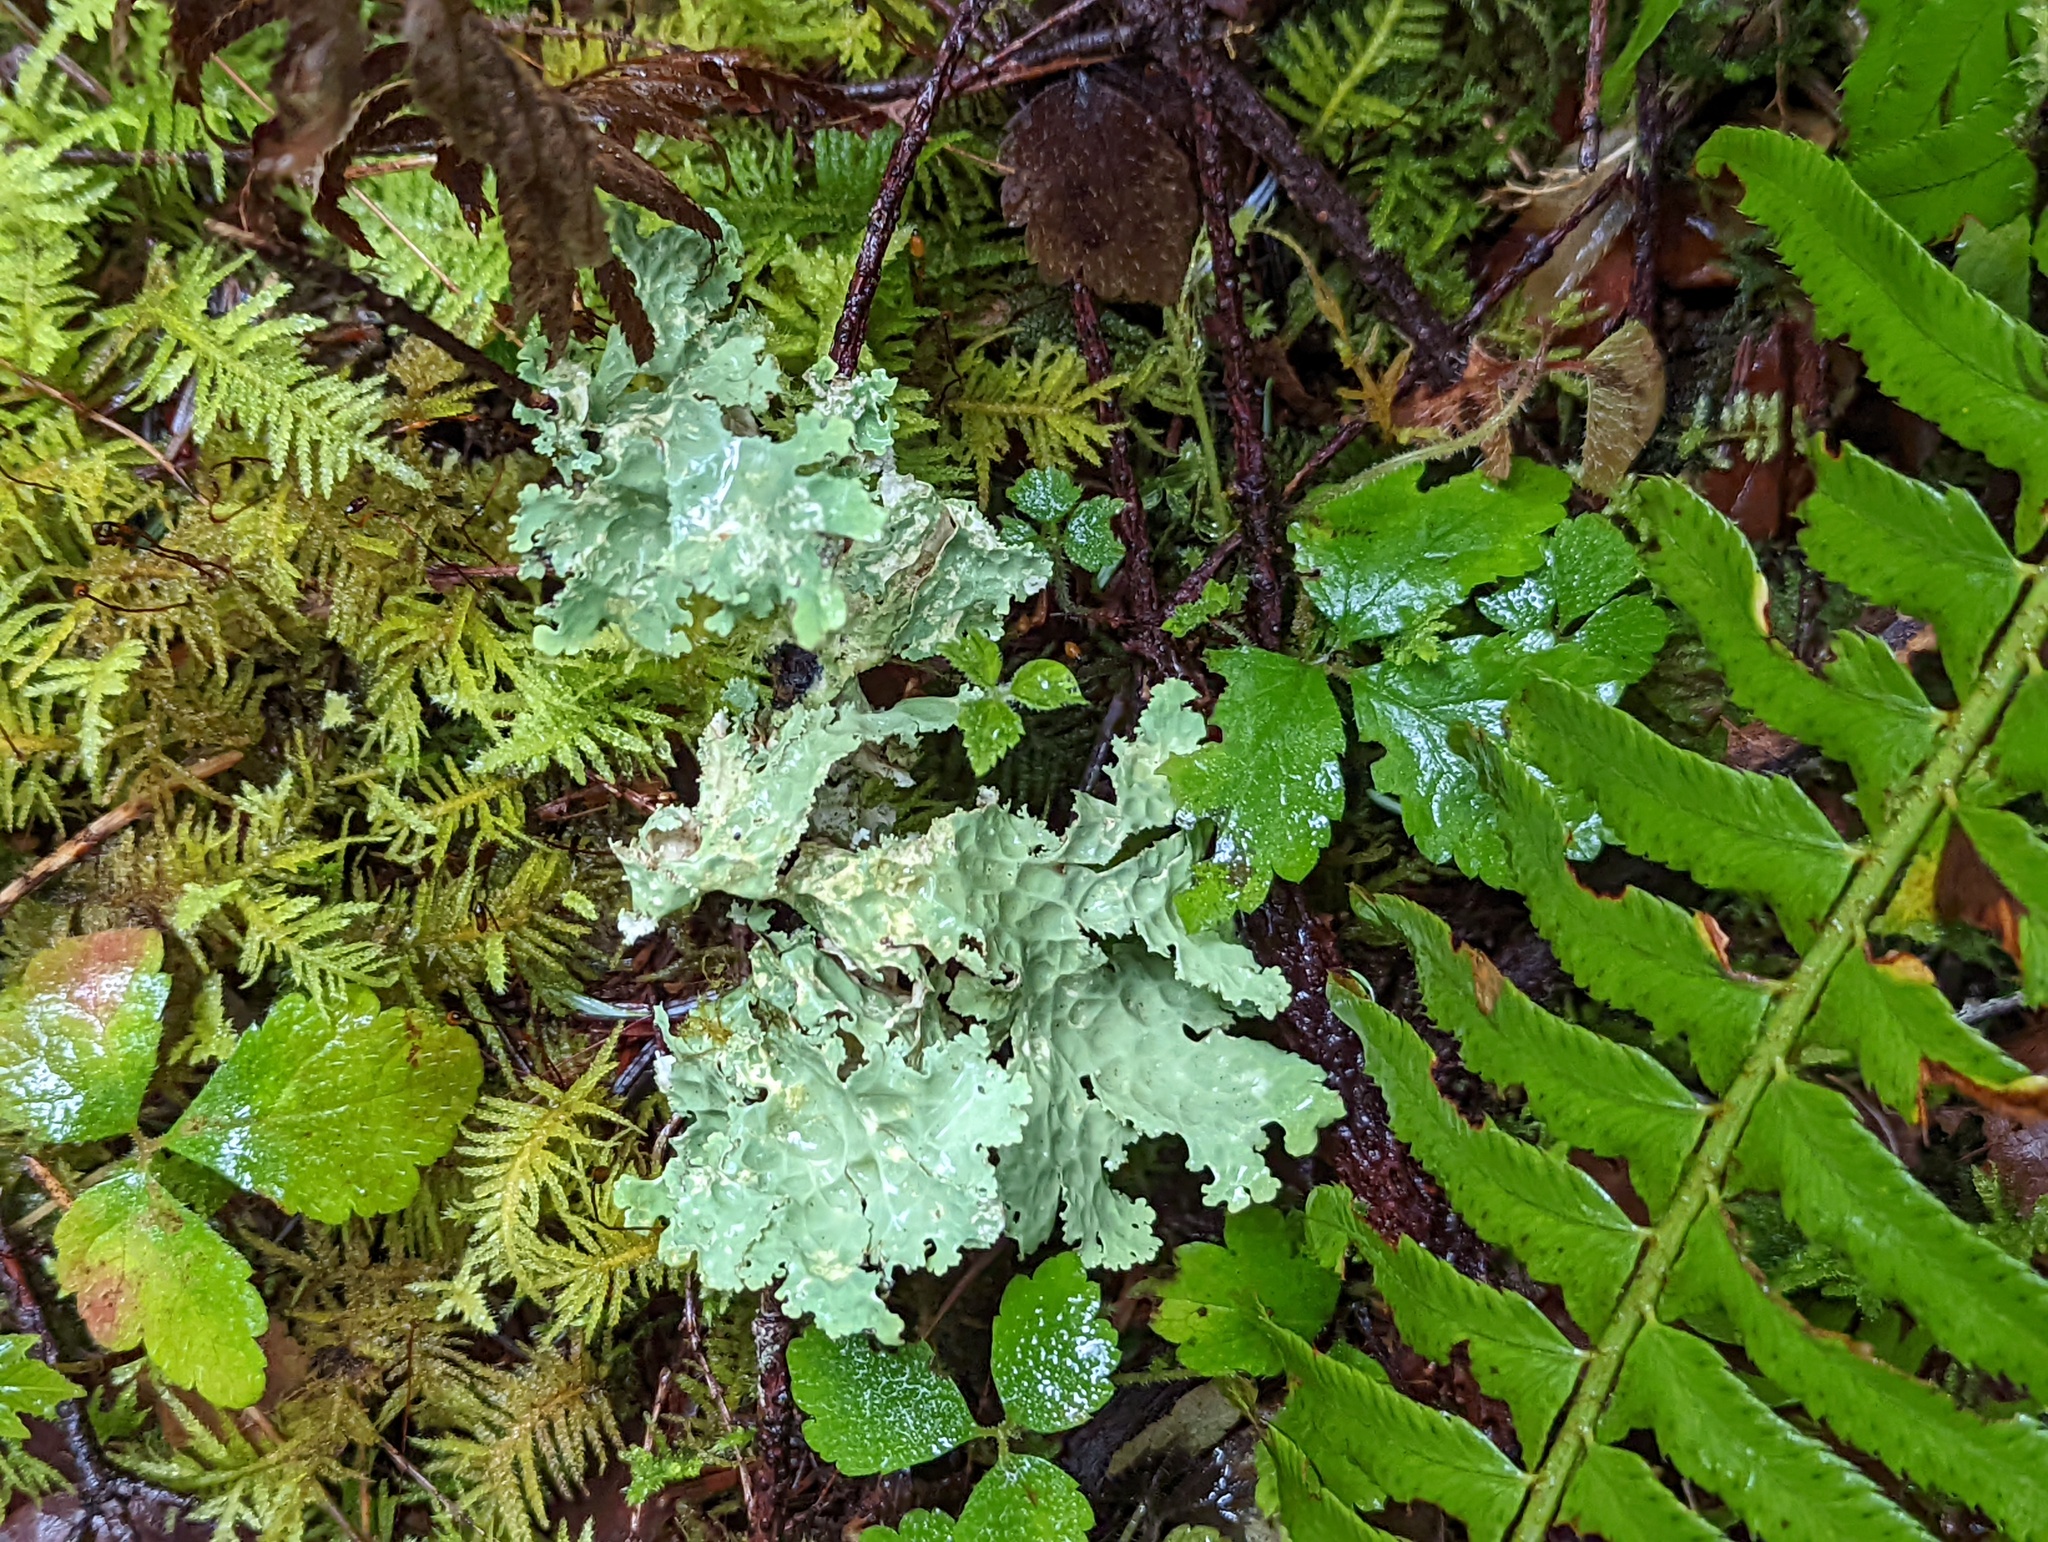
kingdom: Fungi
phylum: Ascomycota
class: Lecanoromycetes
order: Peltigerales
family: Lobariaceae
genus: Lobaria
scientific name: Lobaria oregana
